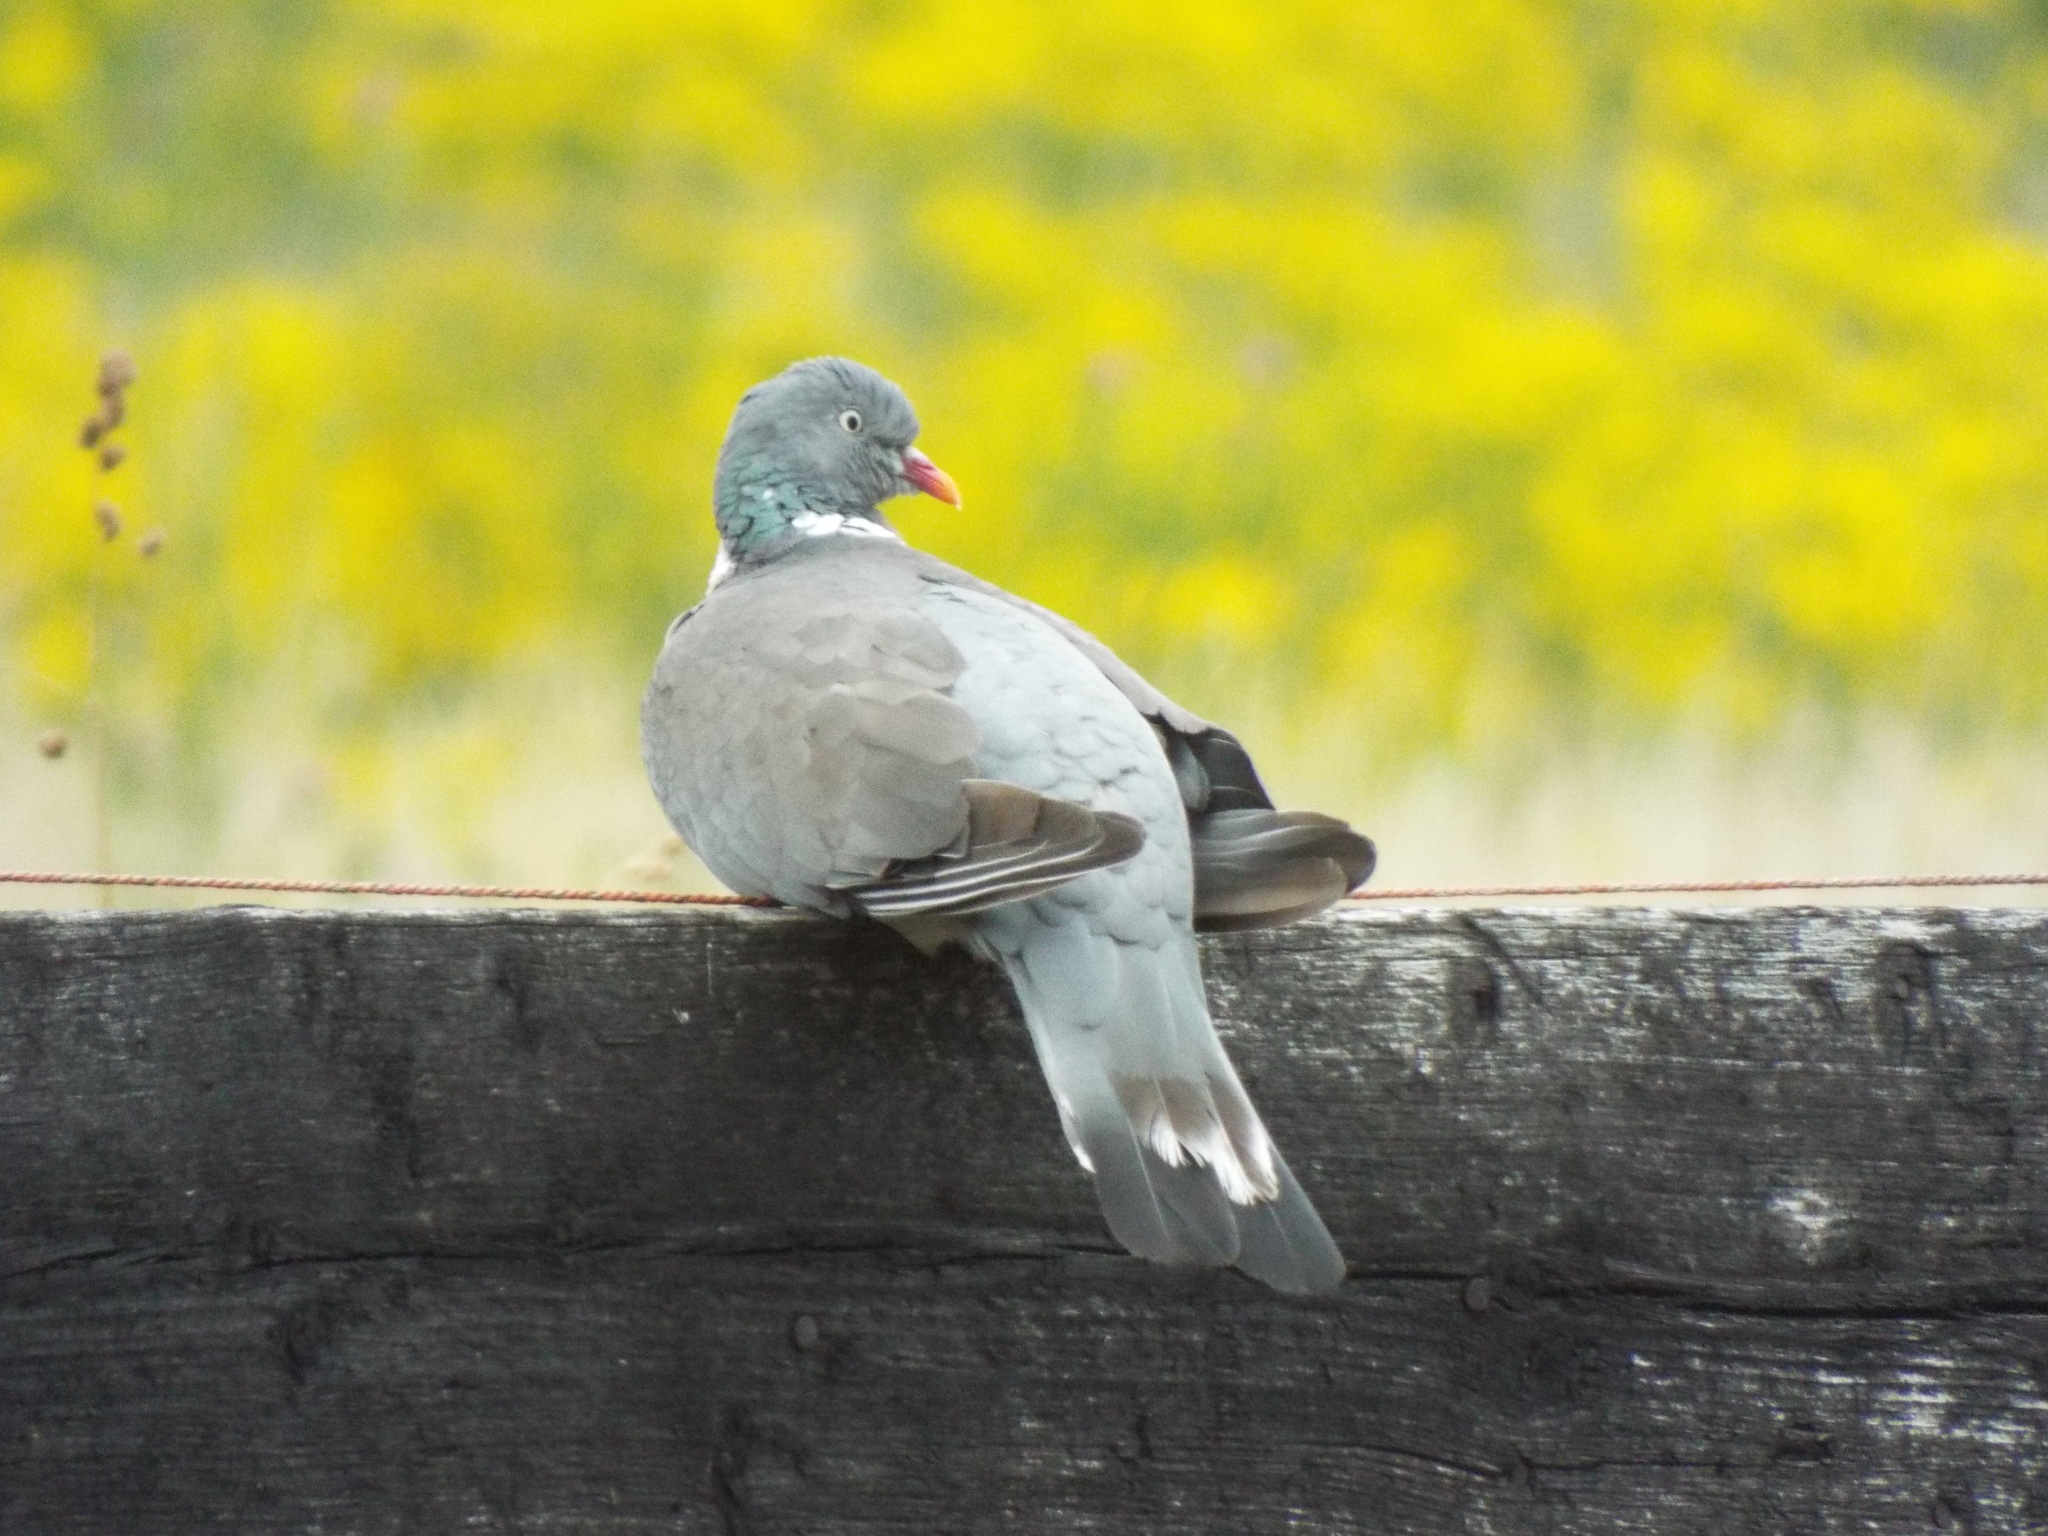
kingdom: Animalia
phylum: Chordata
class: Aves
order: Columbiformes
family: Columbidae
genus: Columba
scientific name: Columba palumbus
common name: Common wood pigeon
